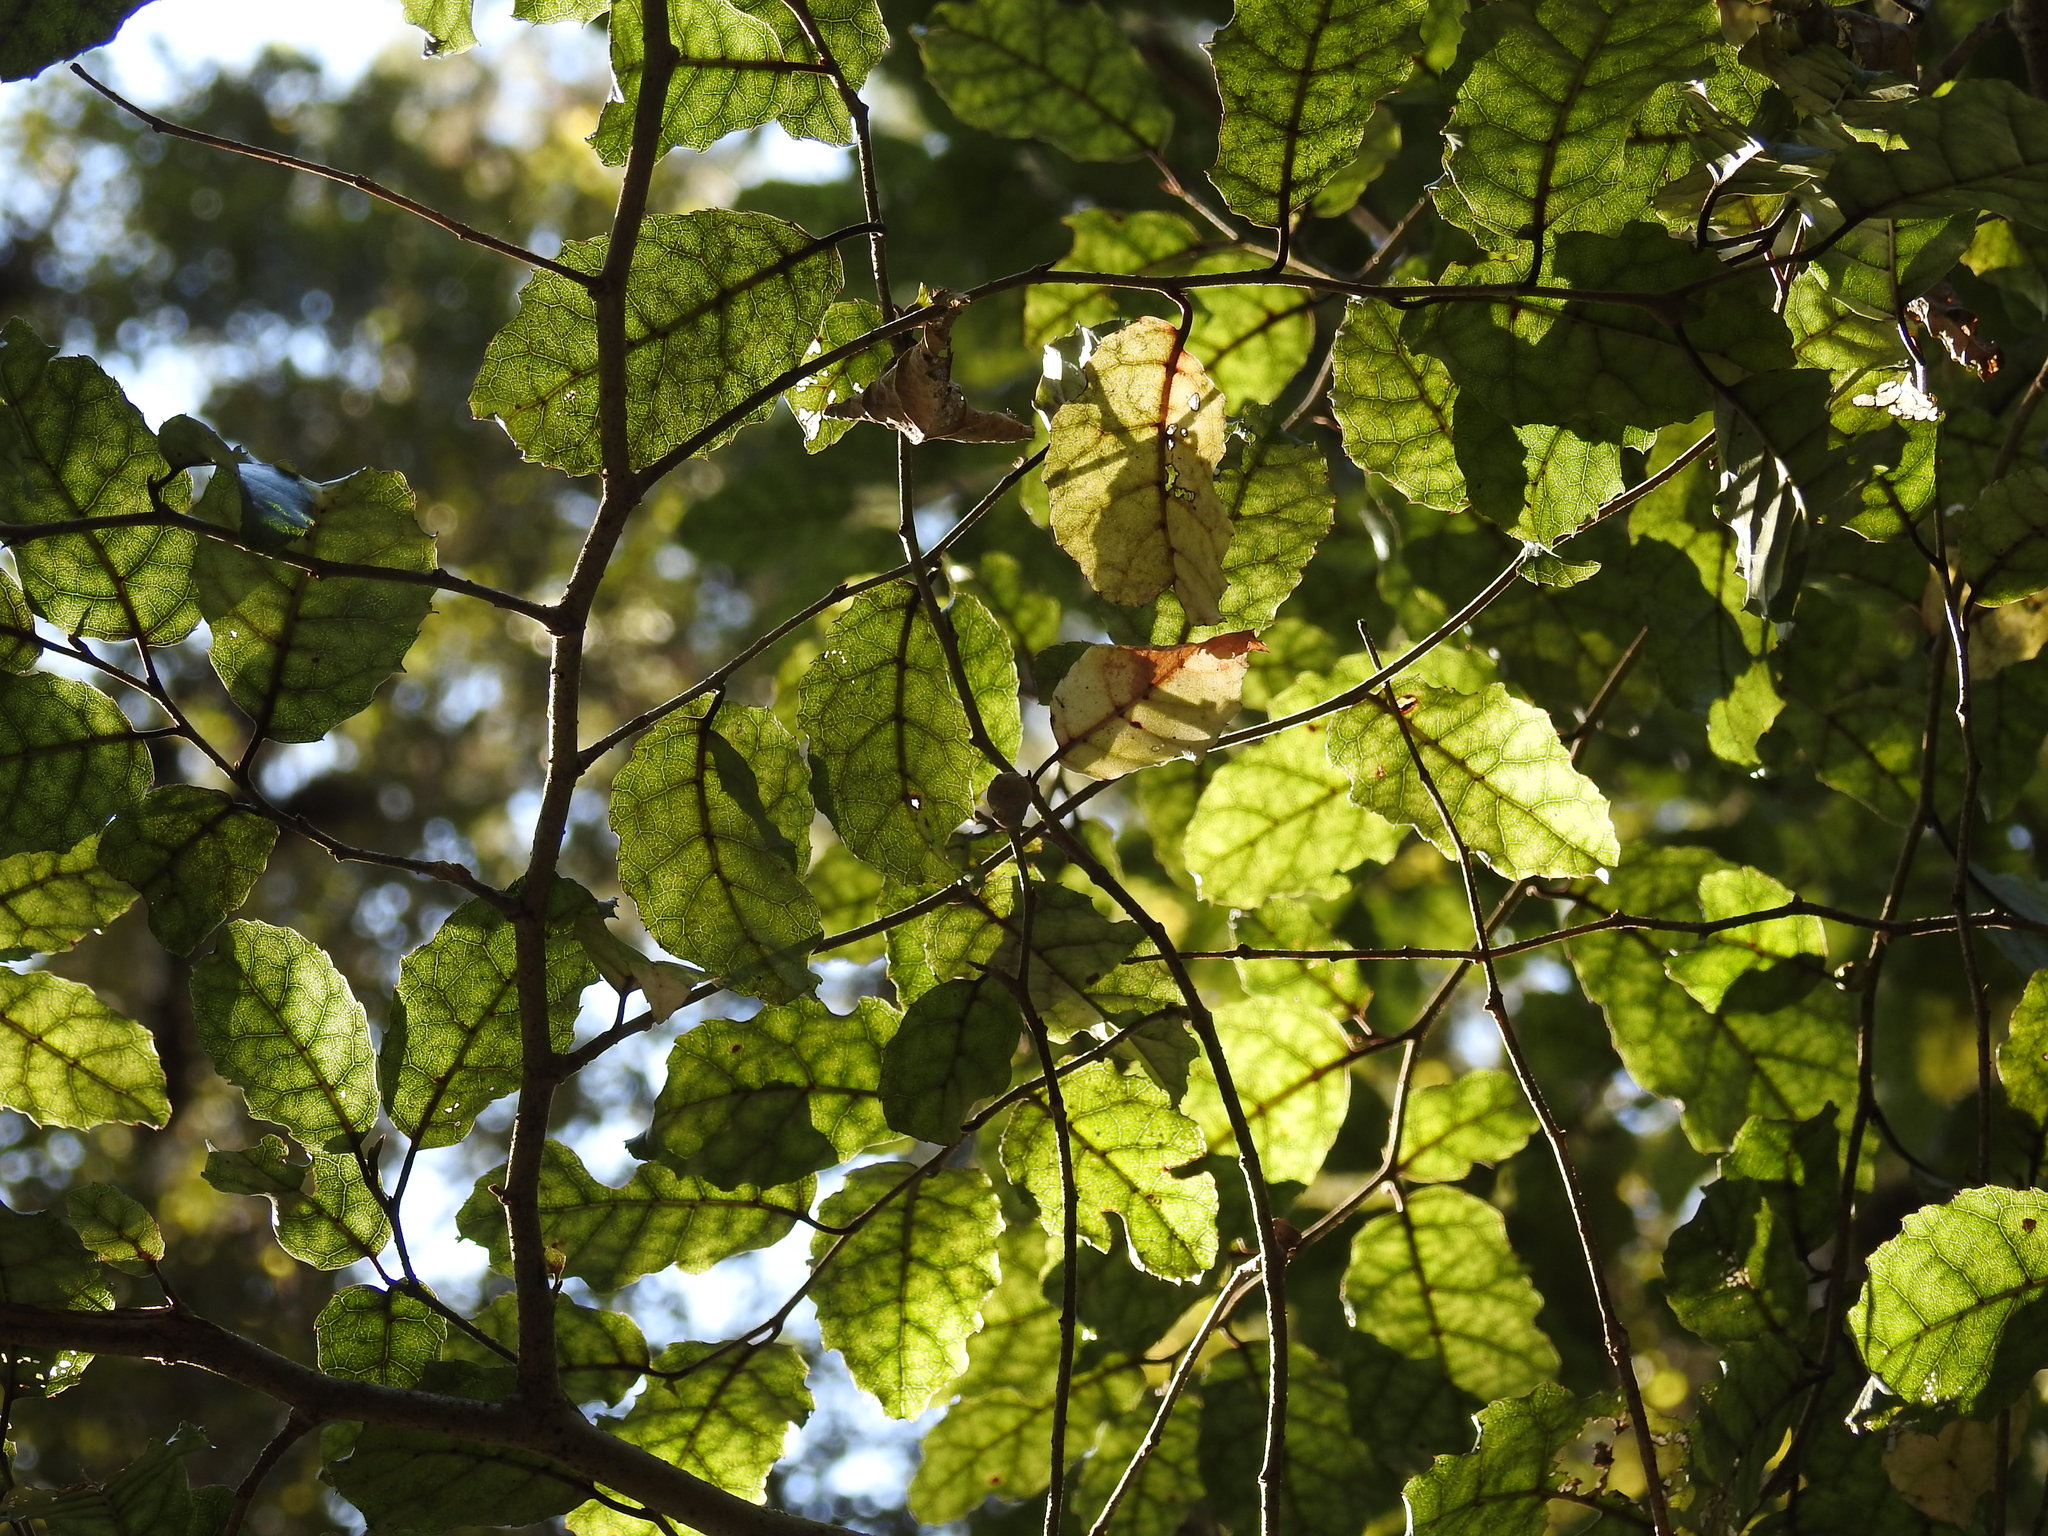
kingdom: Plantae
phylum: Tracheophyta
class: Magnoliopsida
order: Asterales
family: Rousseaceae
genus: Carpodetus
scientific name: Carpodetus serratus
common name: White mapau
